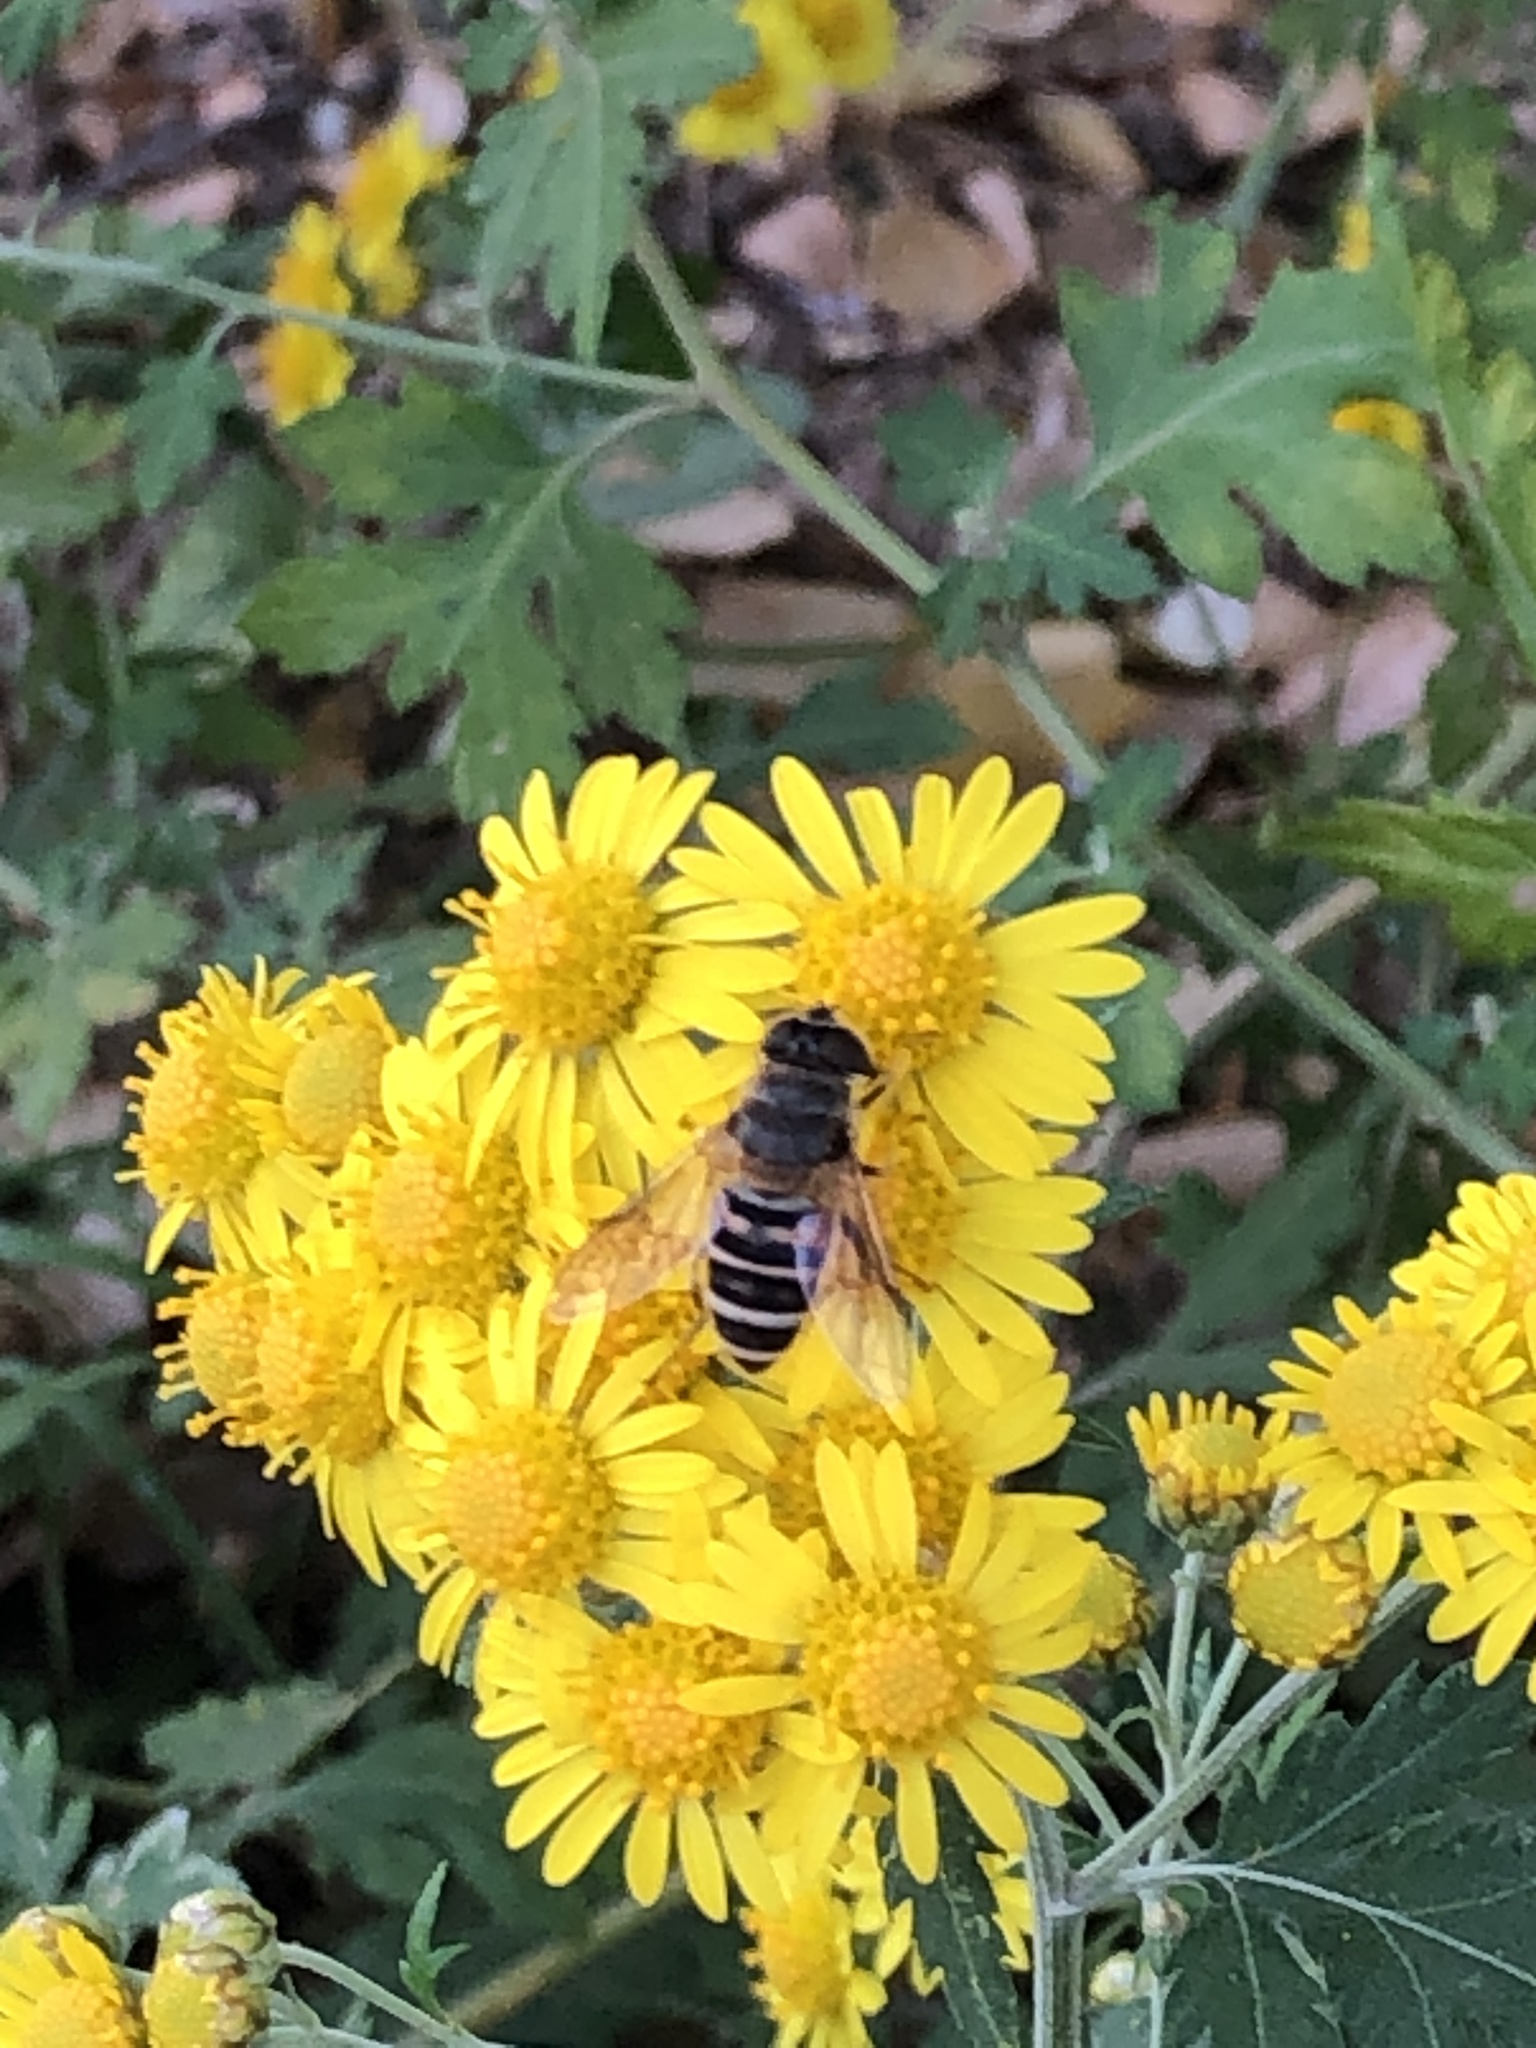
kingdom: Animalia
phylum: Arthropoda
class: Insecta
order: Diptera
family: Syrphidae
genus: Eristalis
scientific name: Eristalis cerealis
